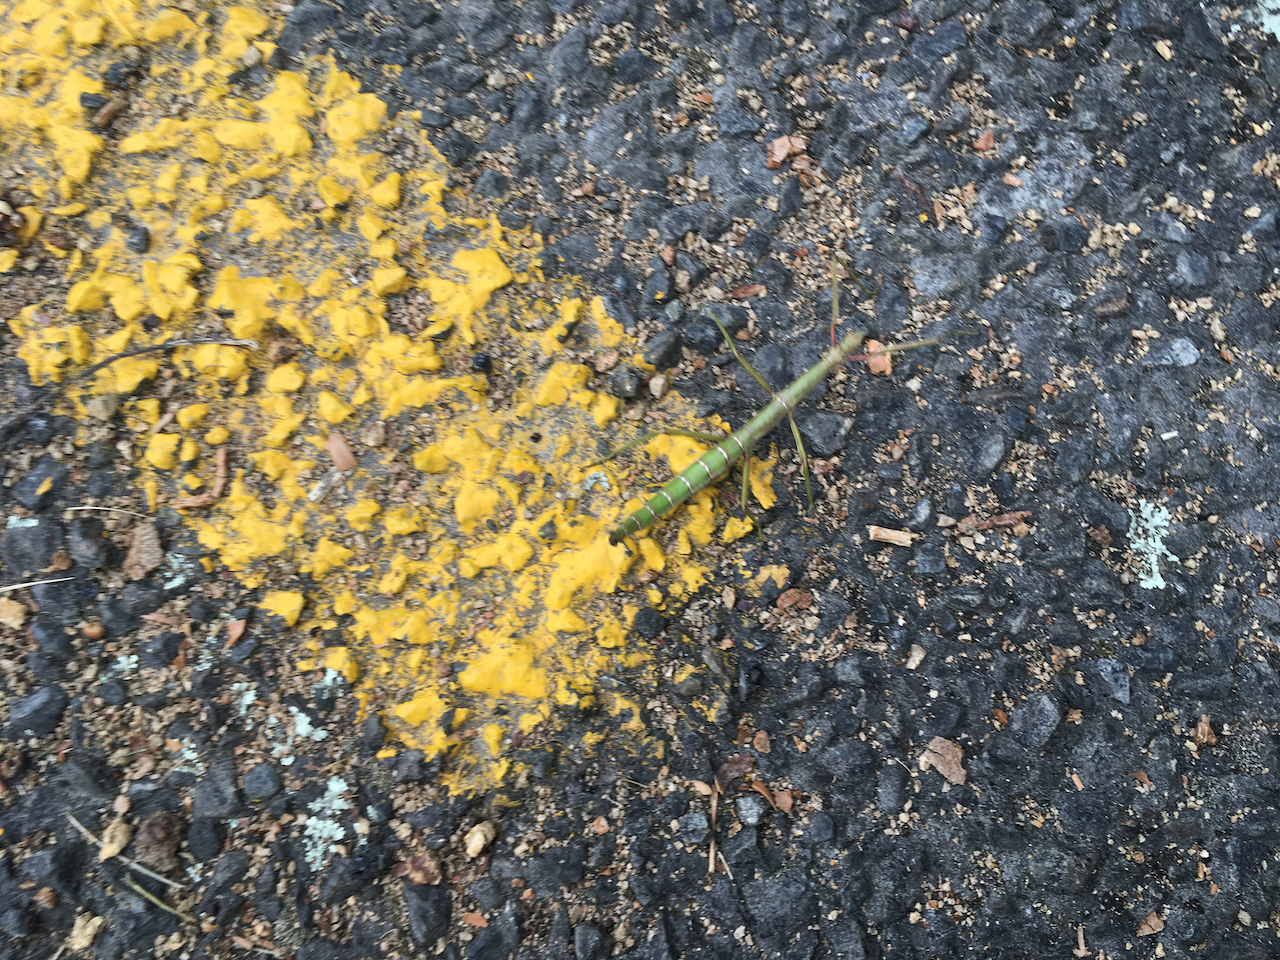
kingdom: Animalia
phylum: Arthropoda
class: Insecta
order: Phasmida
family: Phasmatidae
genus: Acanthoxyla
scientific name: Acanthoxyla inermis
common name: Unarmed stick insect
